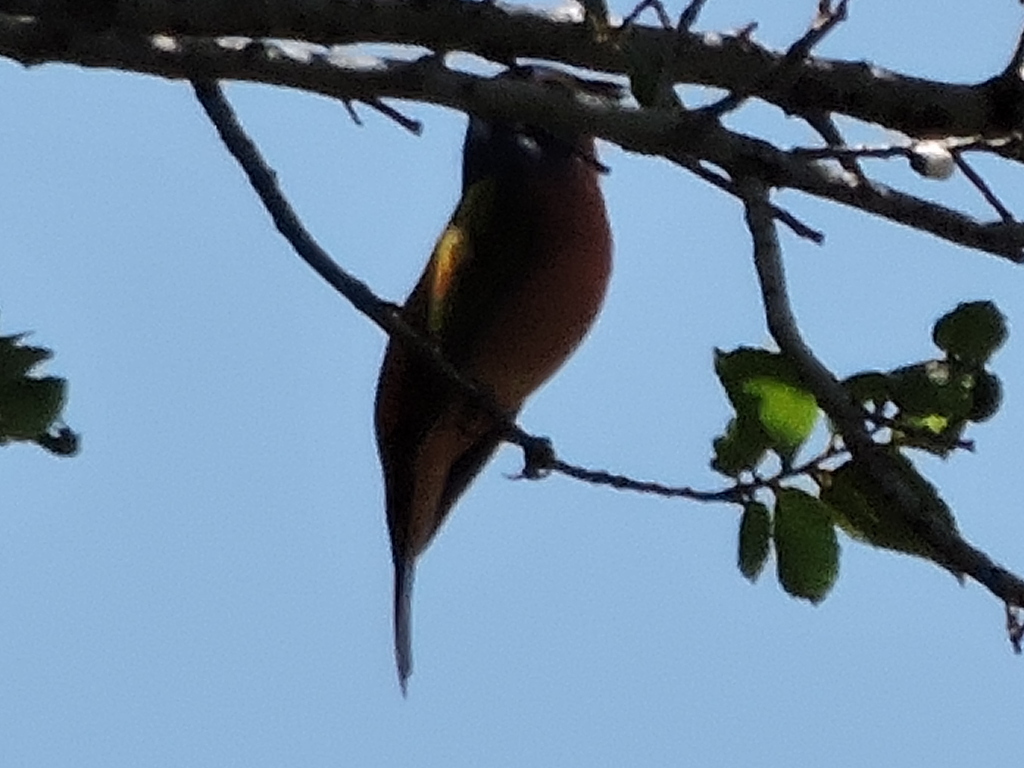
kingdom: Animalia
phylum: Chordata
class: Aves
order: Passeriformes
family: Cardinalidae
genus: Passerina
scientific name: Passerina ciris
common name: Painted bunting
